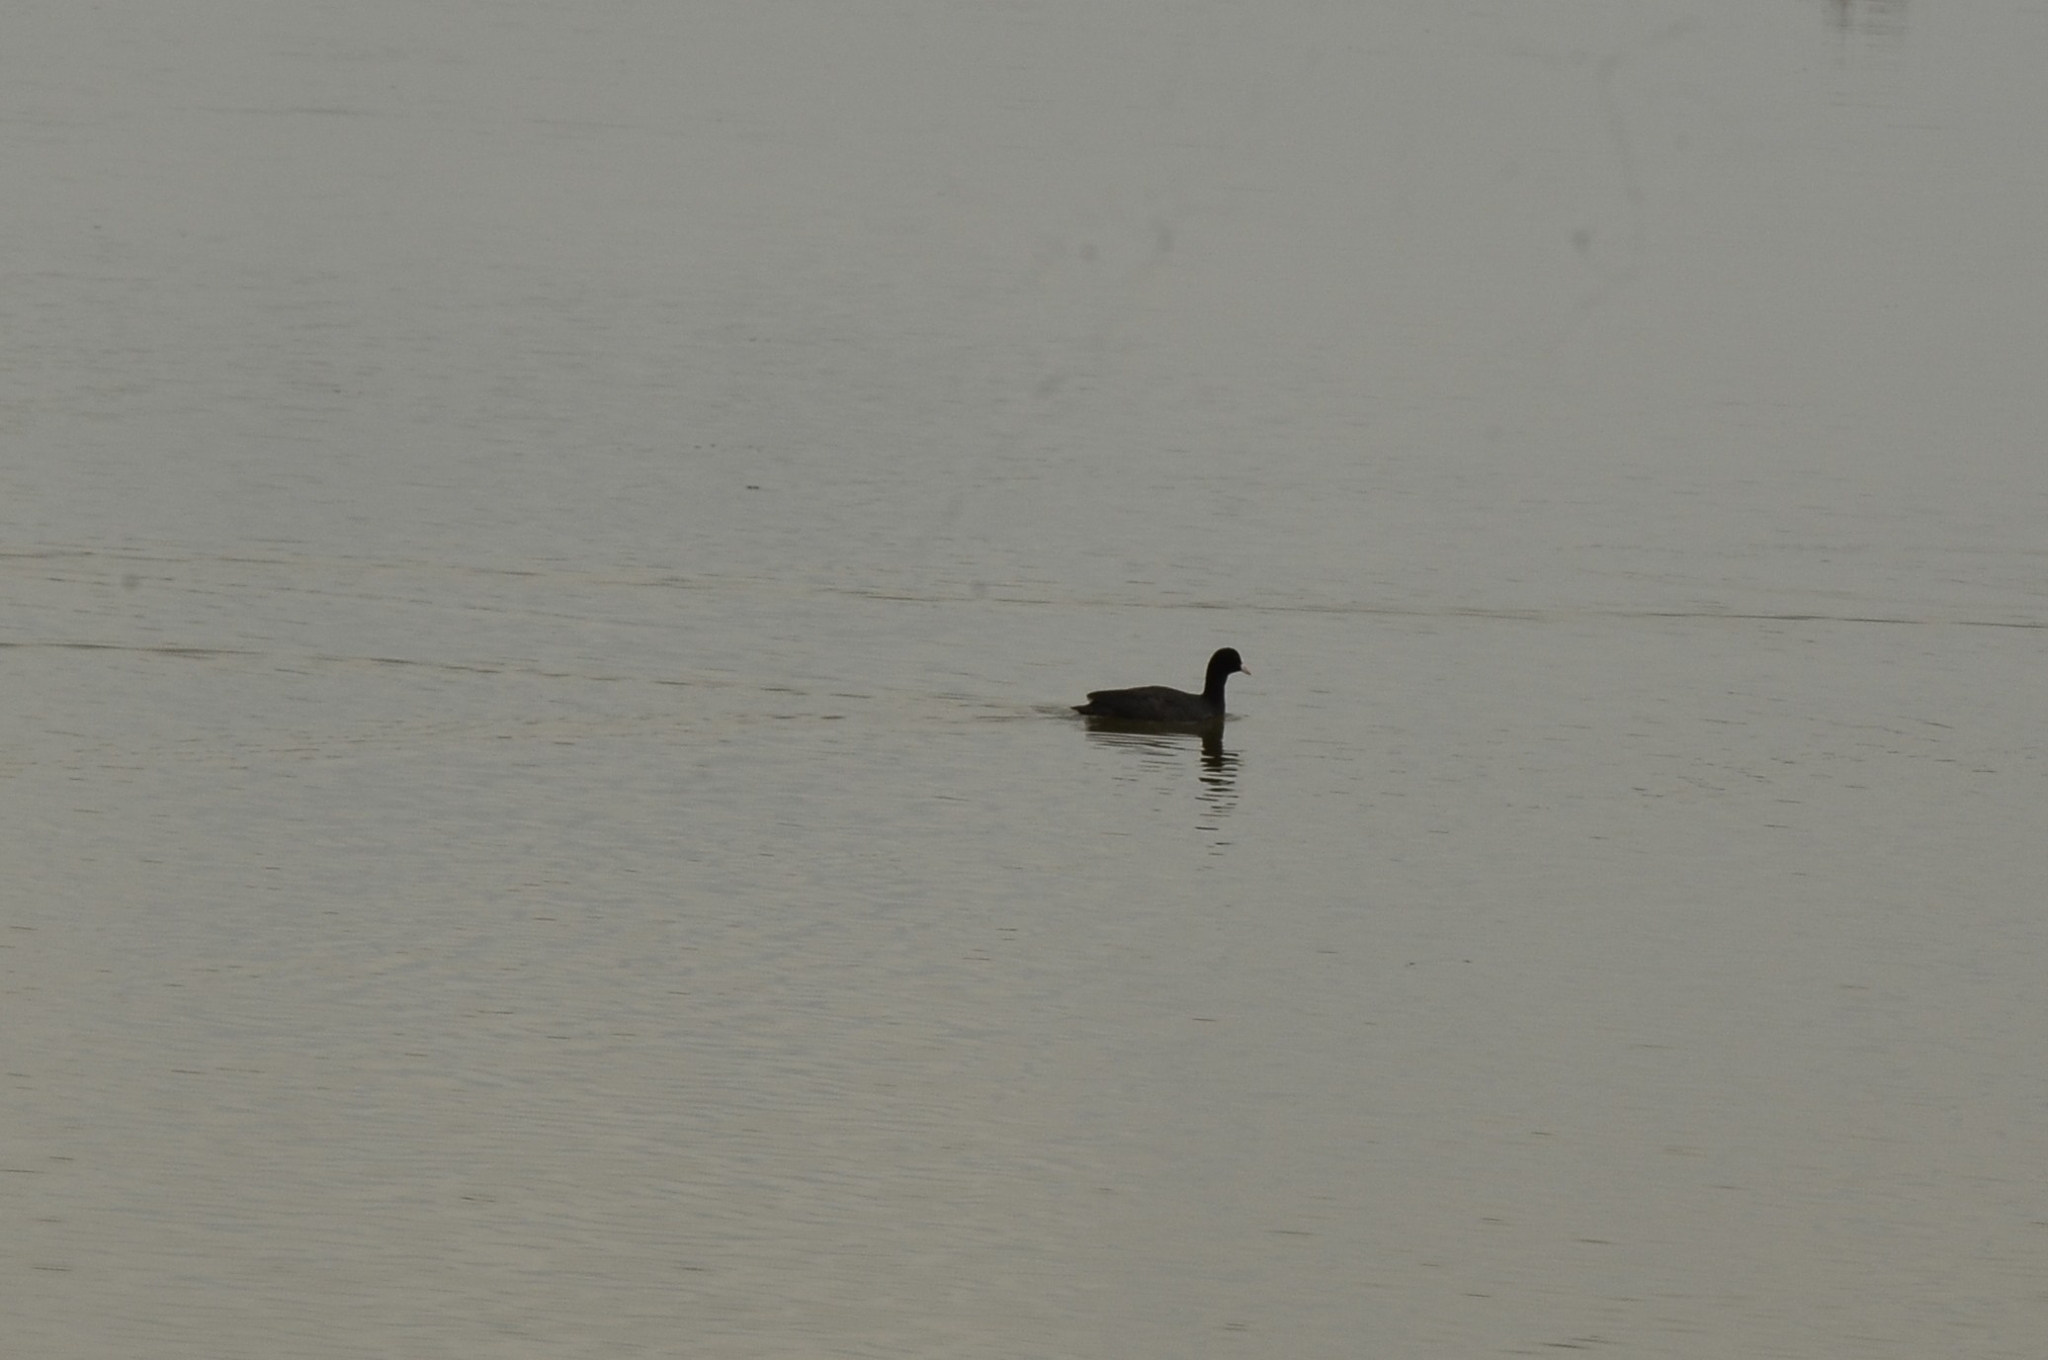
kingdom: Animalia
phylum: Chordata
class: Aves
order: Gruiformes
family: Rallidae
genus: Fulica
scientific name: Fulica atra
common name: Eurasian coot
